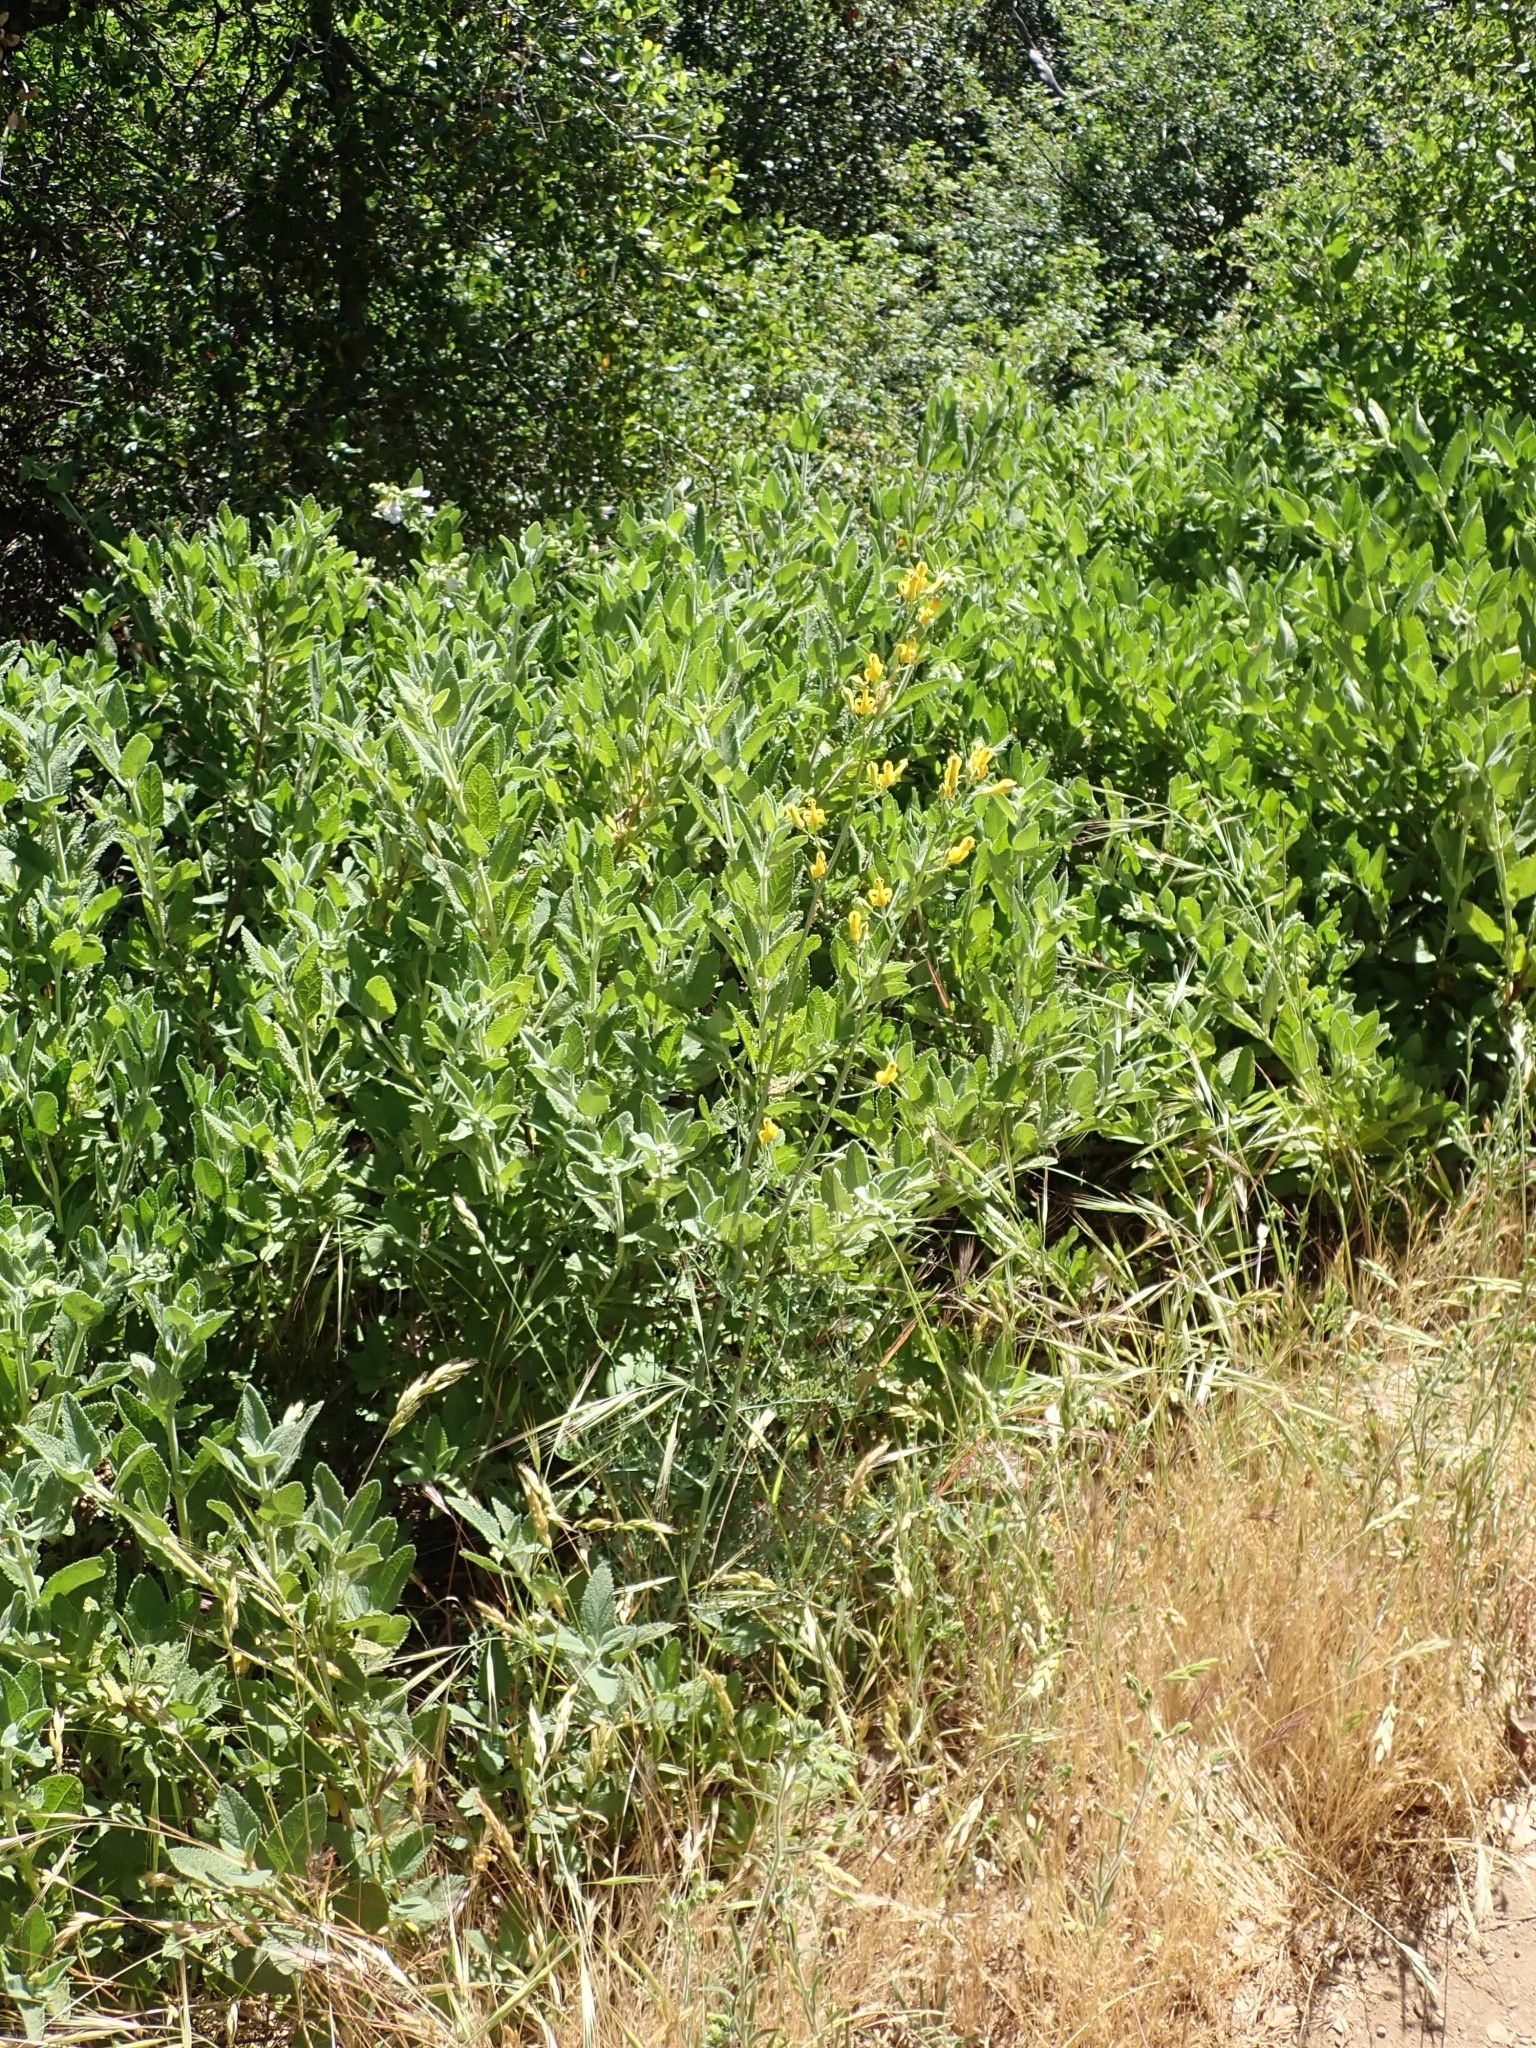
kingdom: Plantae
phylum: Tracheophyta
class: Magnoliopsida
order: Ranunculales
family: Papaveraceae
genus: Ehrendorferia
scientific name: Ehrendorferia chrysantha
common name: Golden eardrops
